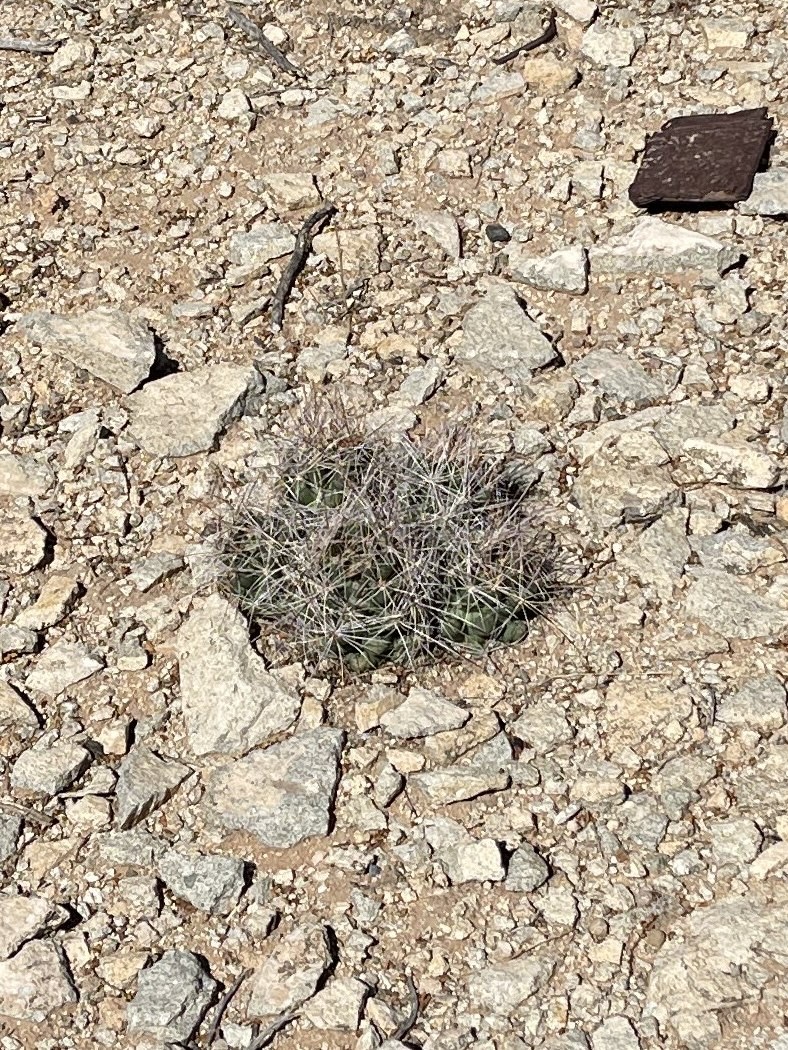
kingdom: Plantae
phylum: Tracheophyta
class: Magnoliopsida
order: Caryophyllales
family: Cactaceae
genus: Coryphantha
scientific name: Coryphantha macromeris
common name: Nipple beehive cactus
